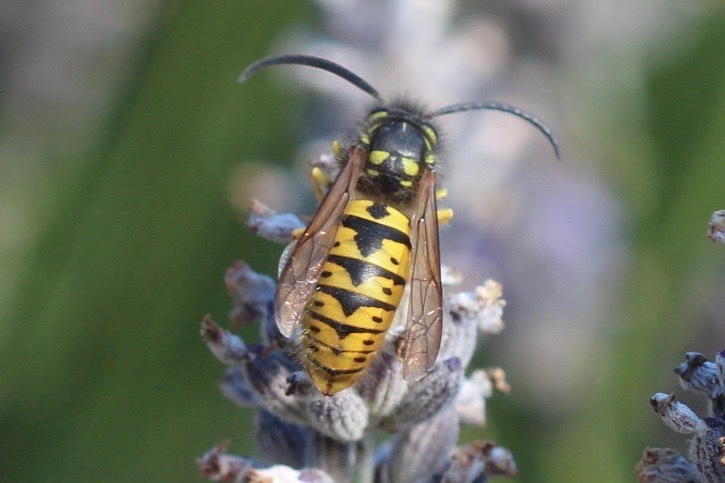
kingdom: Animalia
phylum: Arthropoda
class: Insecta
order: Hymenoptera
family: Vespidae
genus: Vespula
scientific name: Vespula germanica
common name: German wasp
